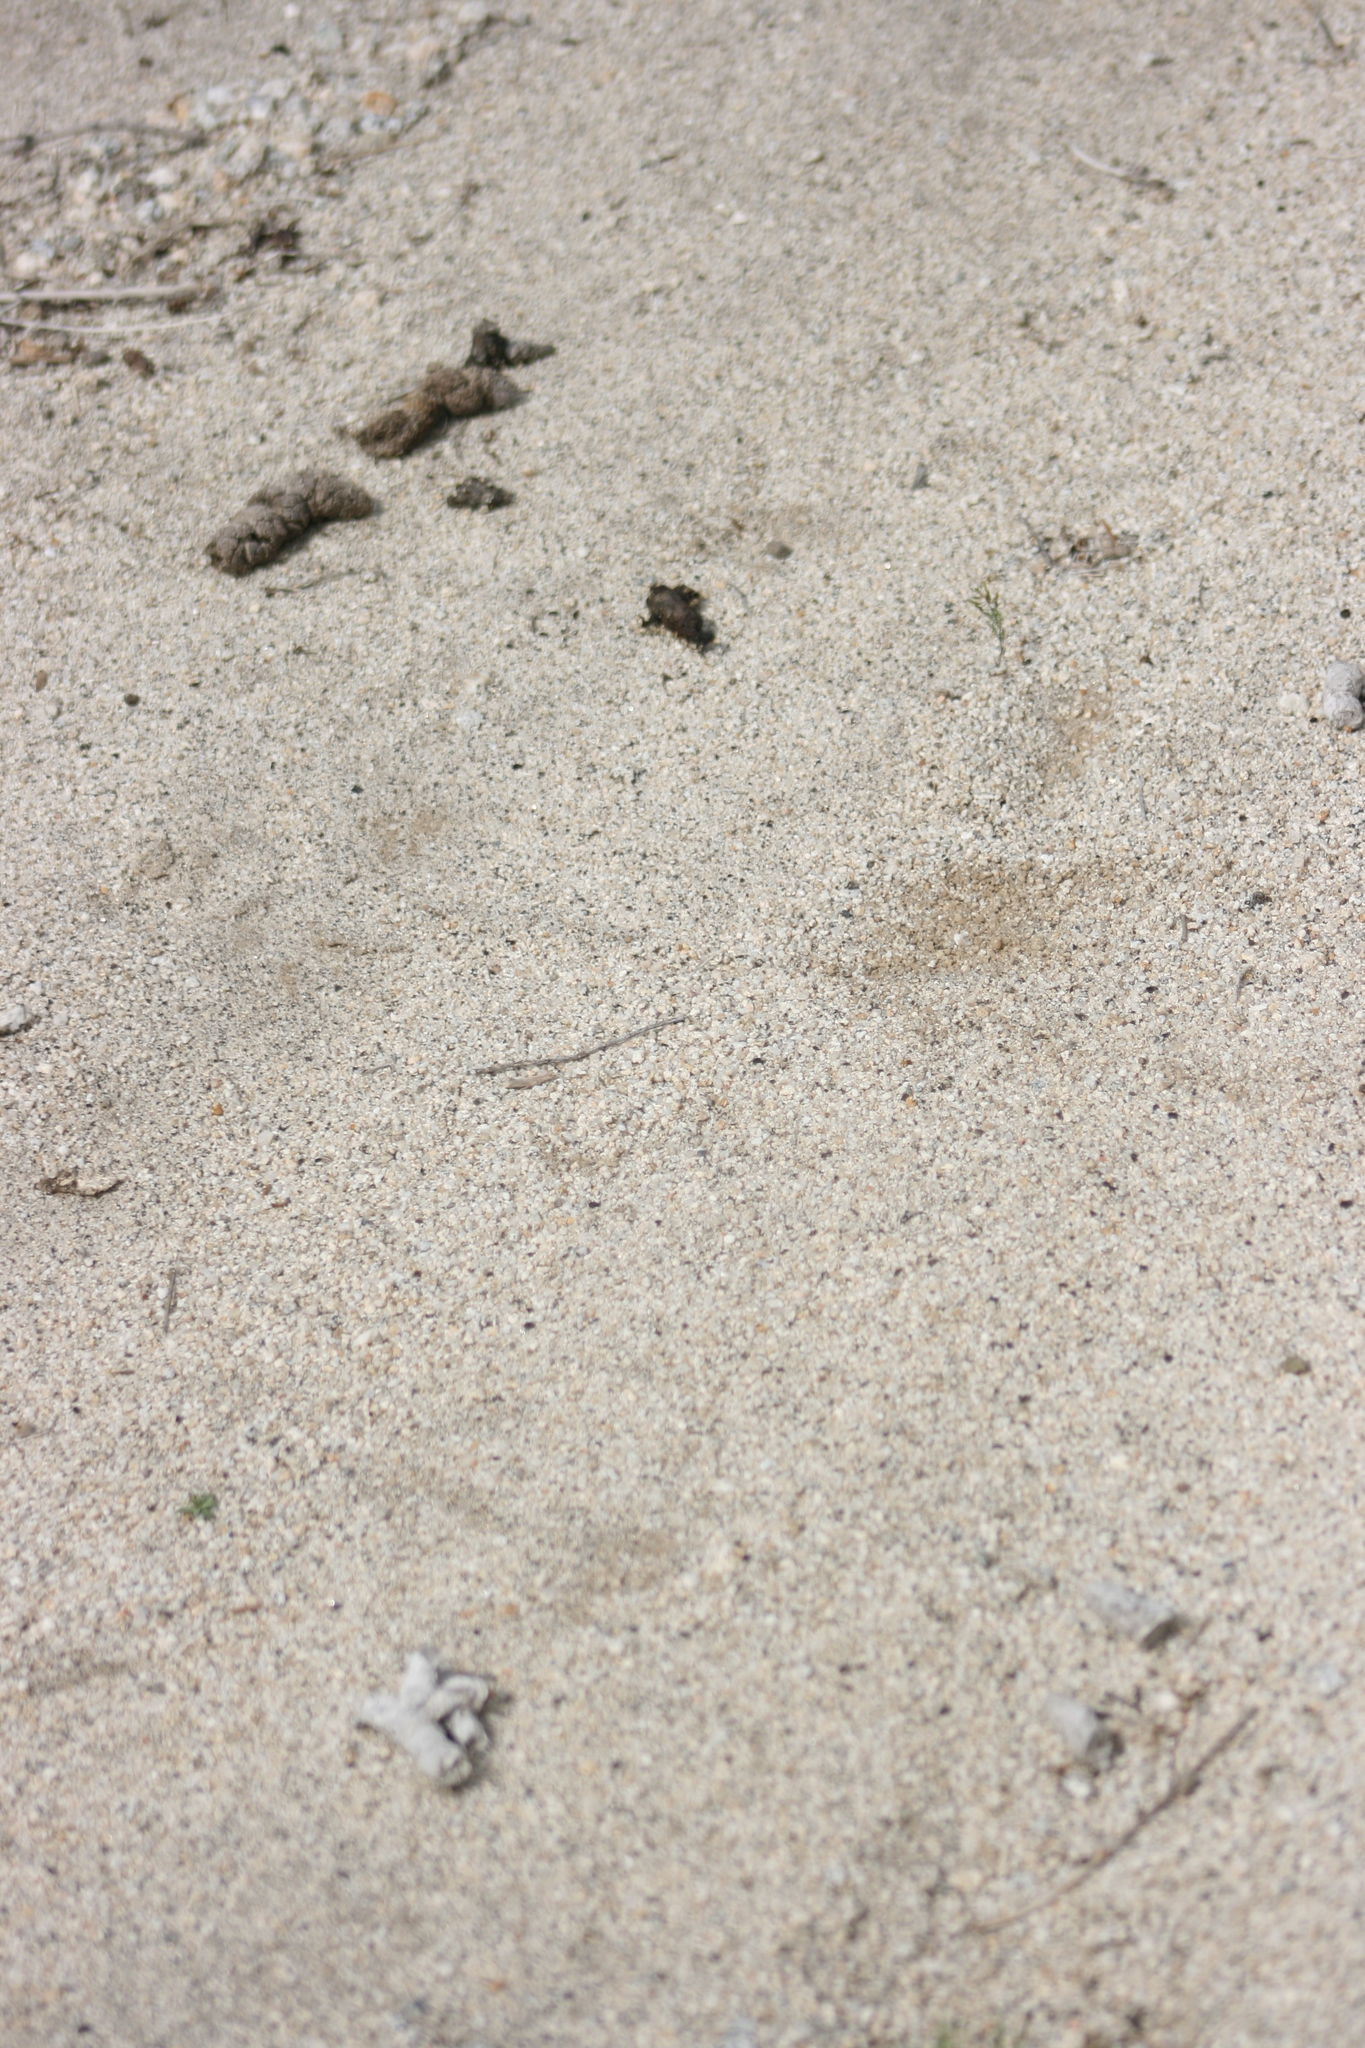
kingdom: Animalia
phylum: Chordata
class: Mammalia
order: Carnivora
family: Canidae
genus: Canis
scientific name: Canis latrans
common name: Coyote
